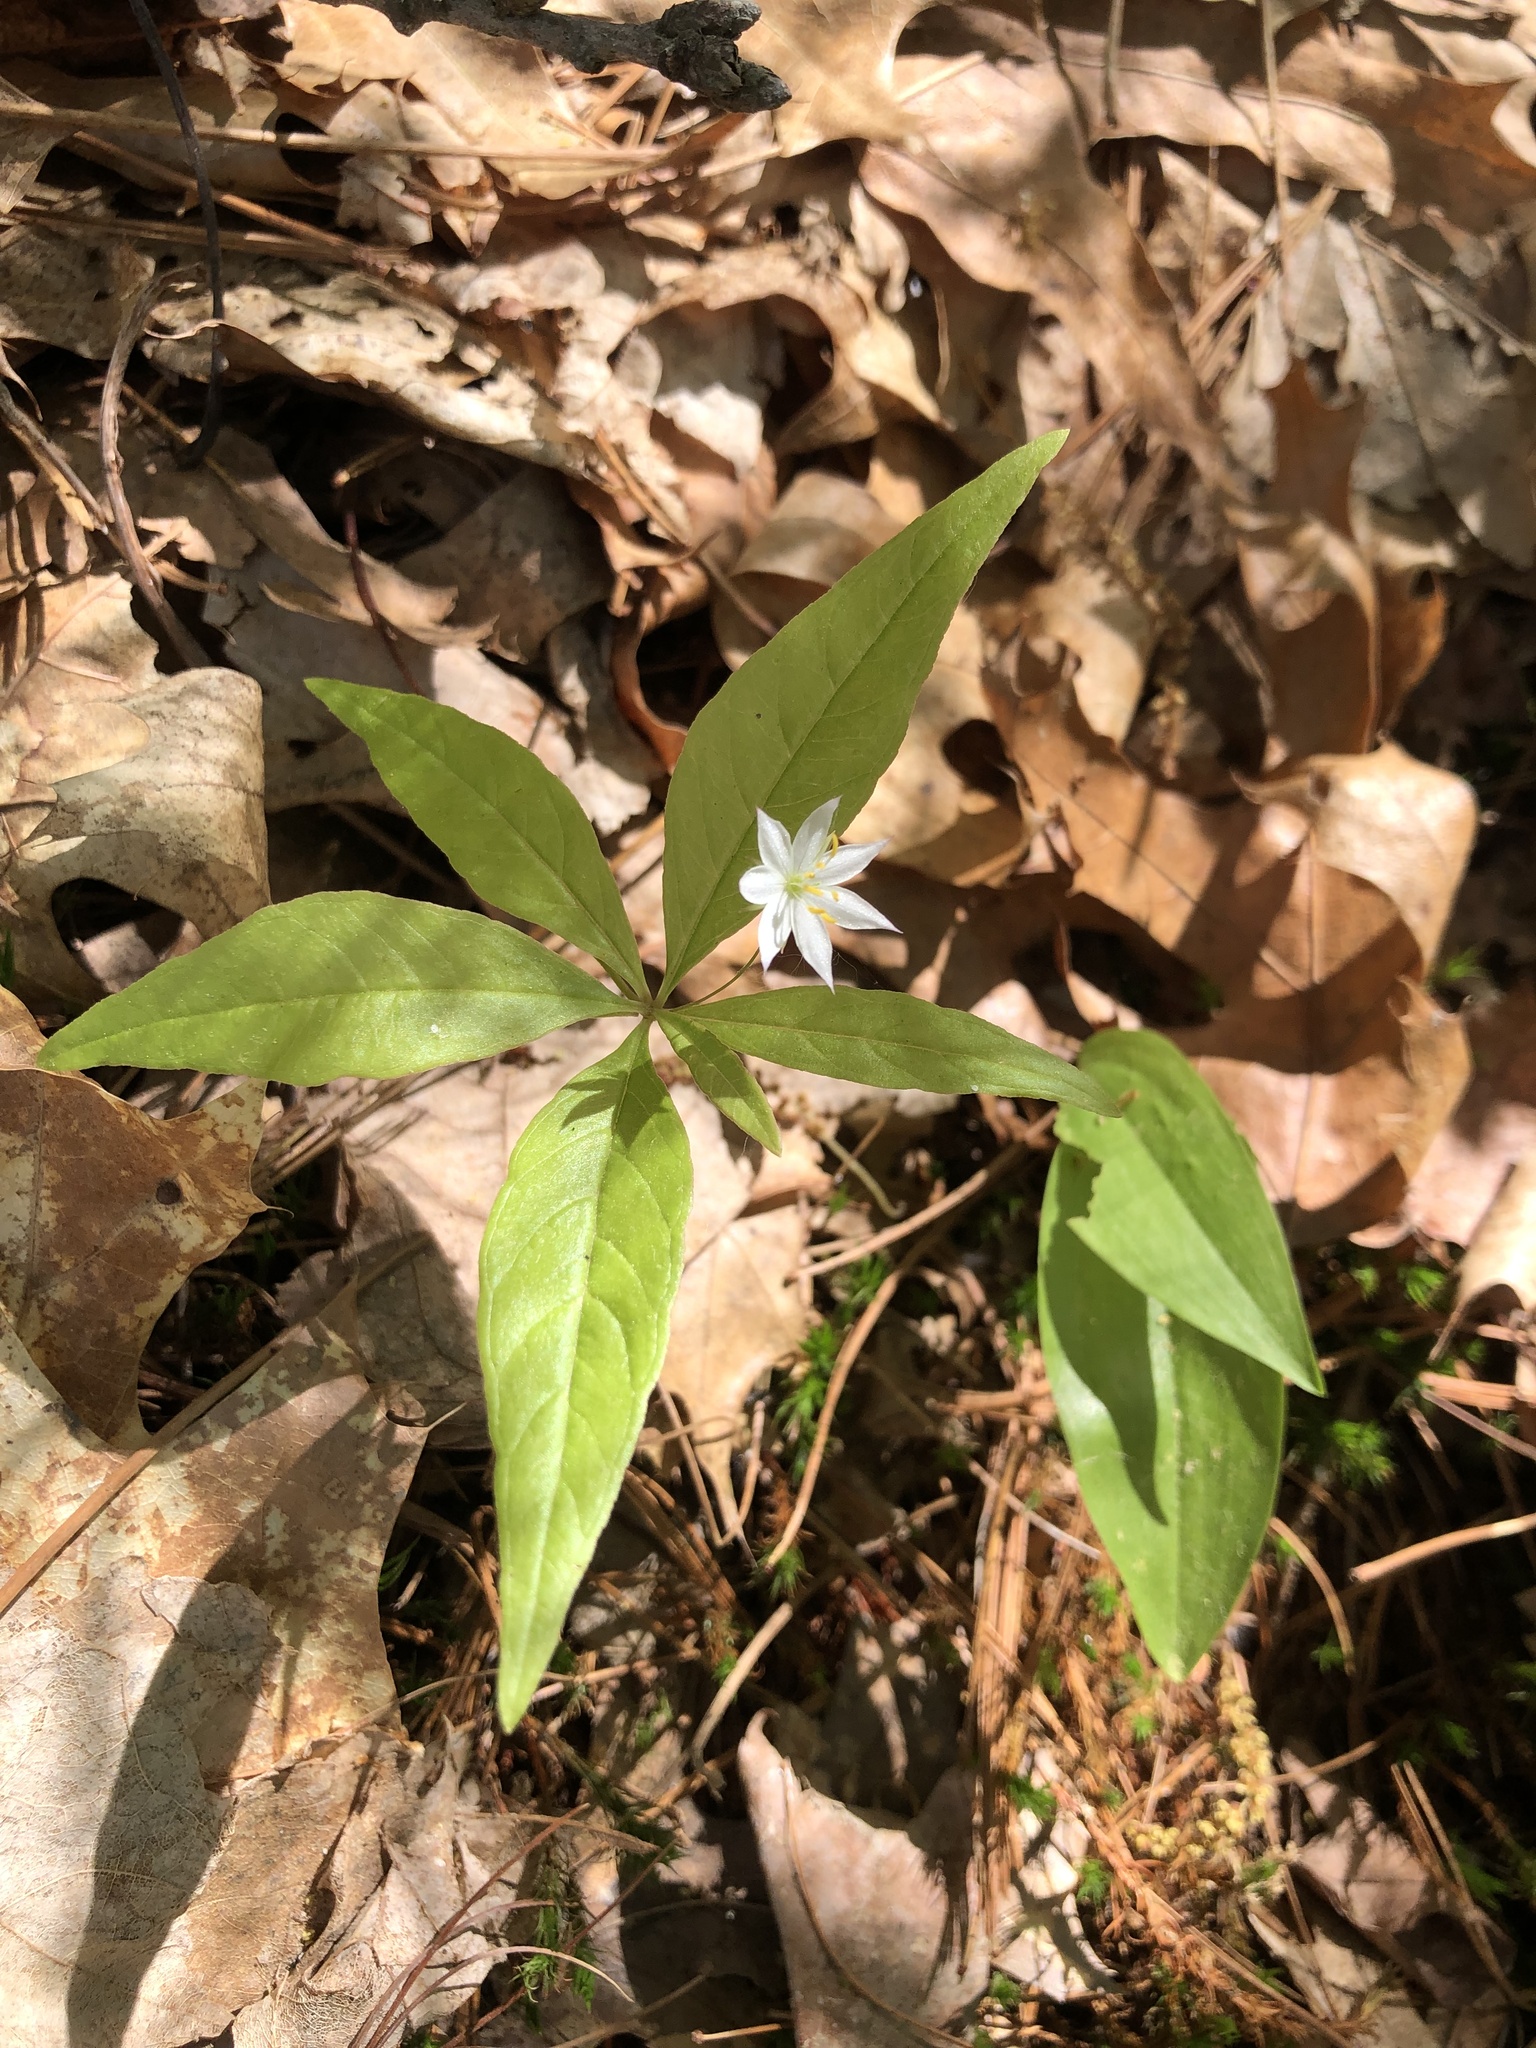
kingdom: Plantae
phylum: Tracheophyta
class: Magnoliopsida
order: Ericales
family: Primulaceae
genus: Lysimachia
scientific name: Lysimachia borealis
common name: American starflower
